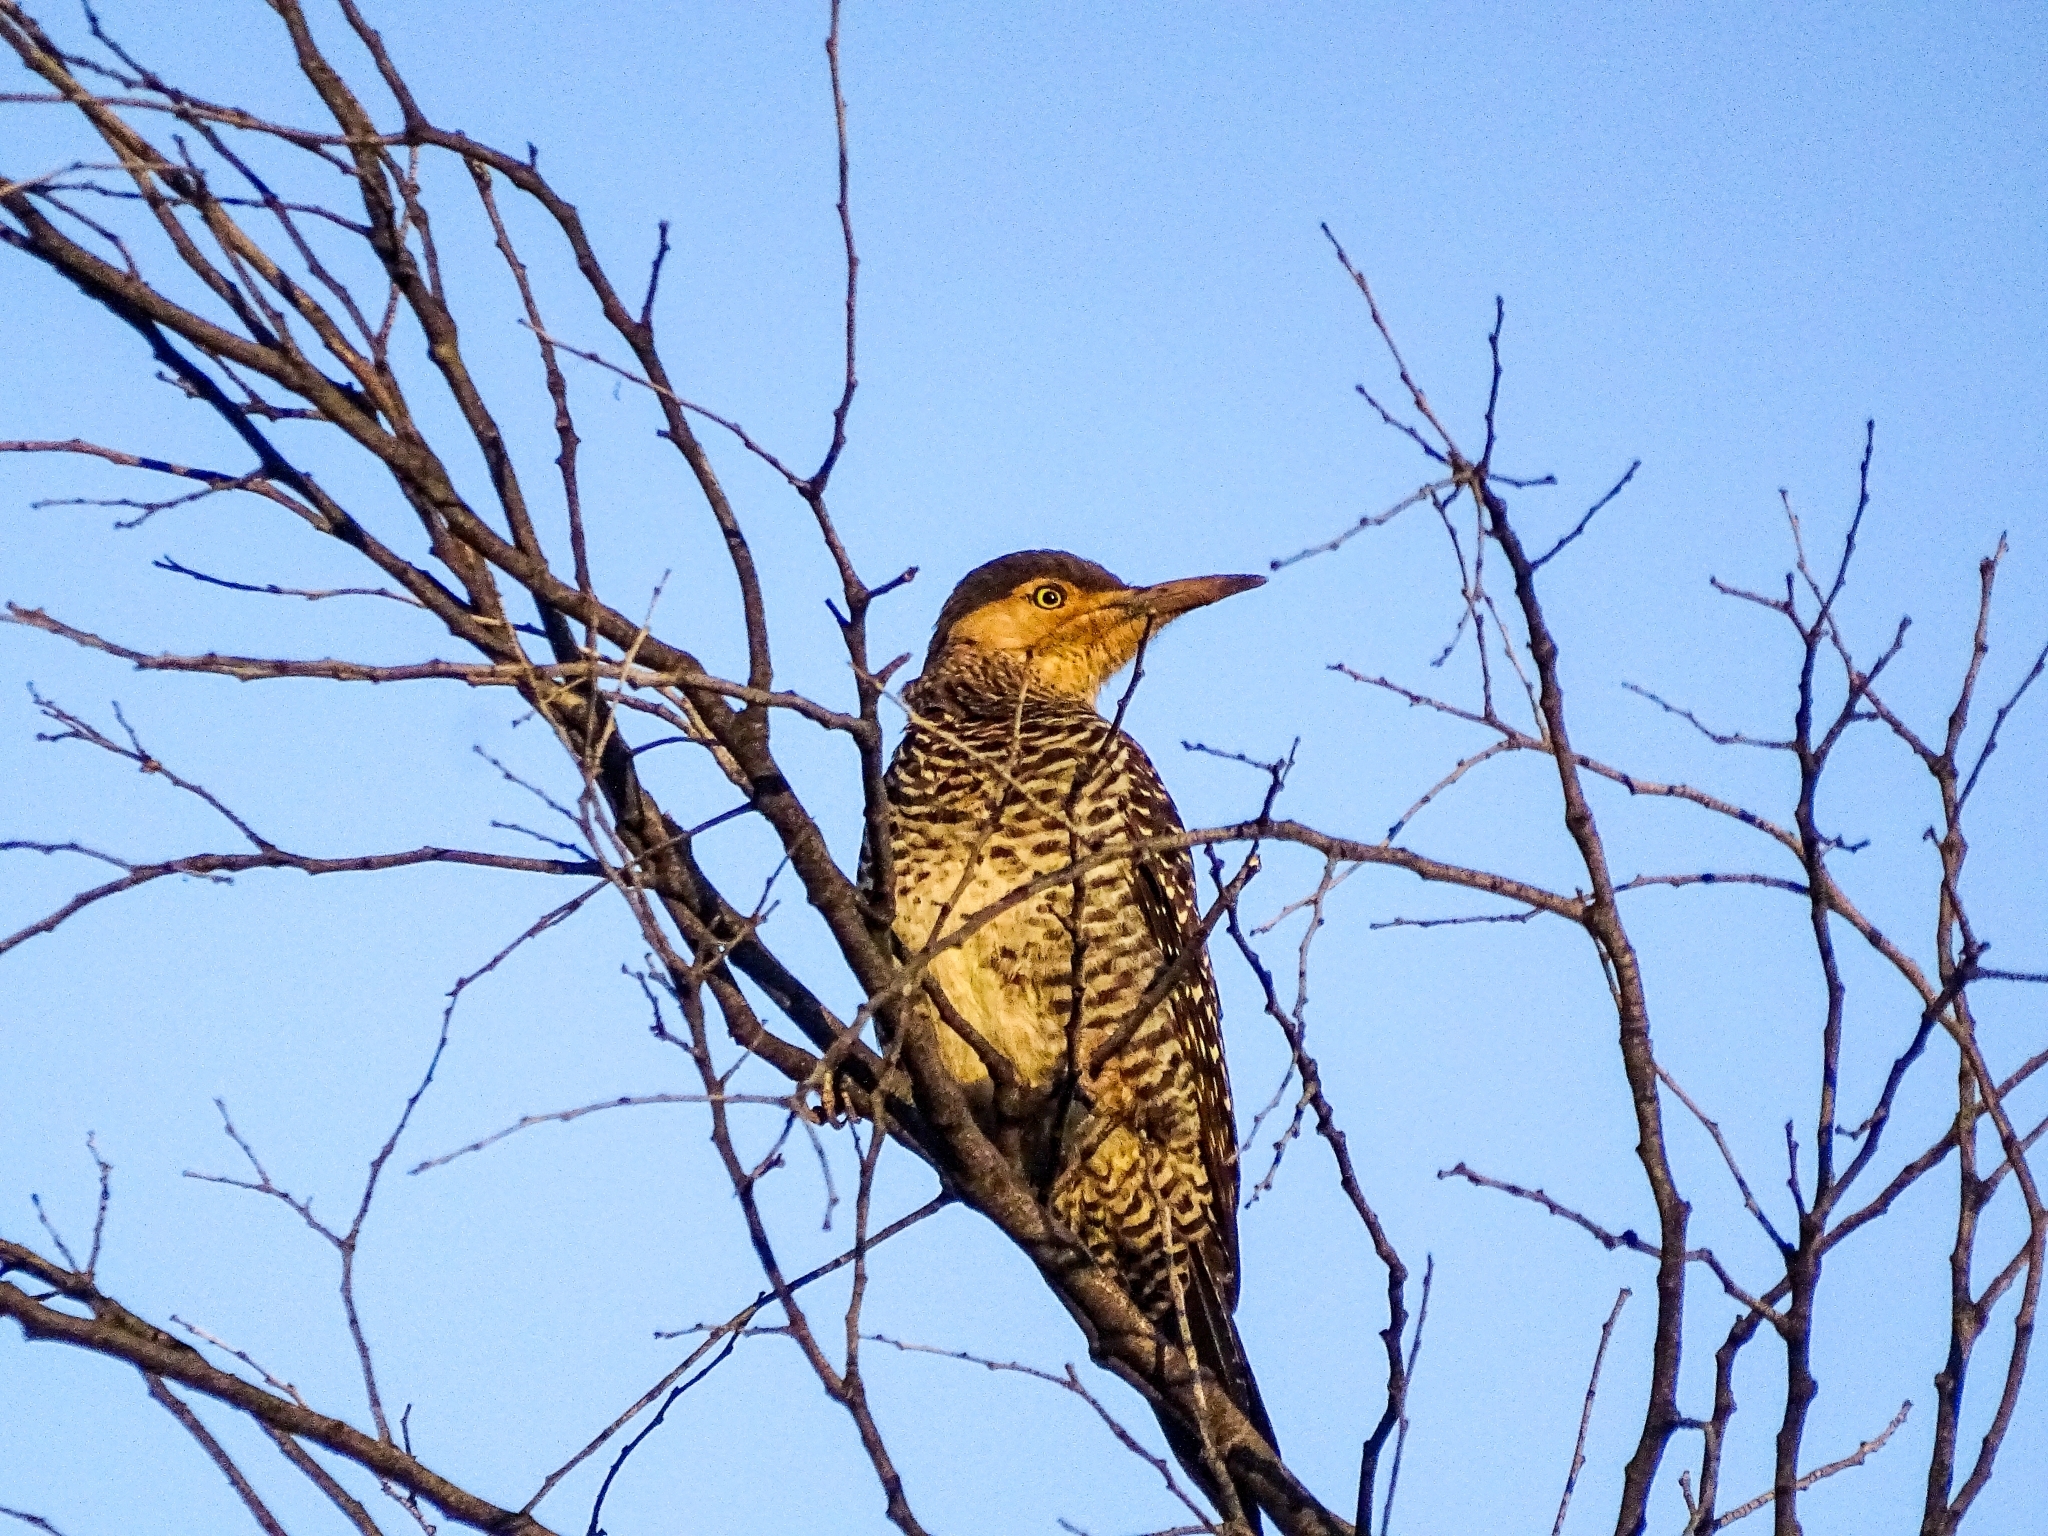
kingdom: Animalia
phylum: Chordata
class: Aves
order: Piciformes
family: Picidae
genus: Colaptes
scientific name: Colaptes pitius
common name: Chilean flicker
